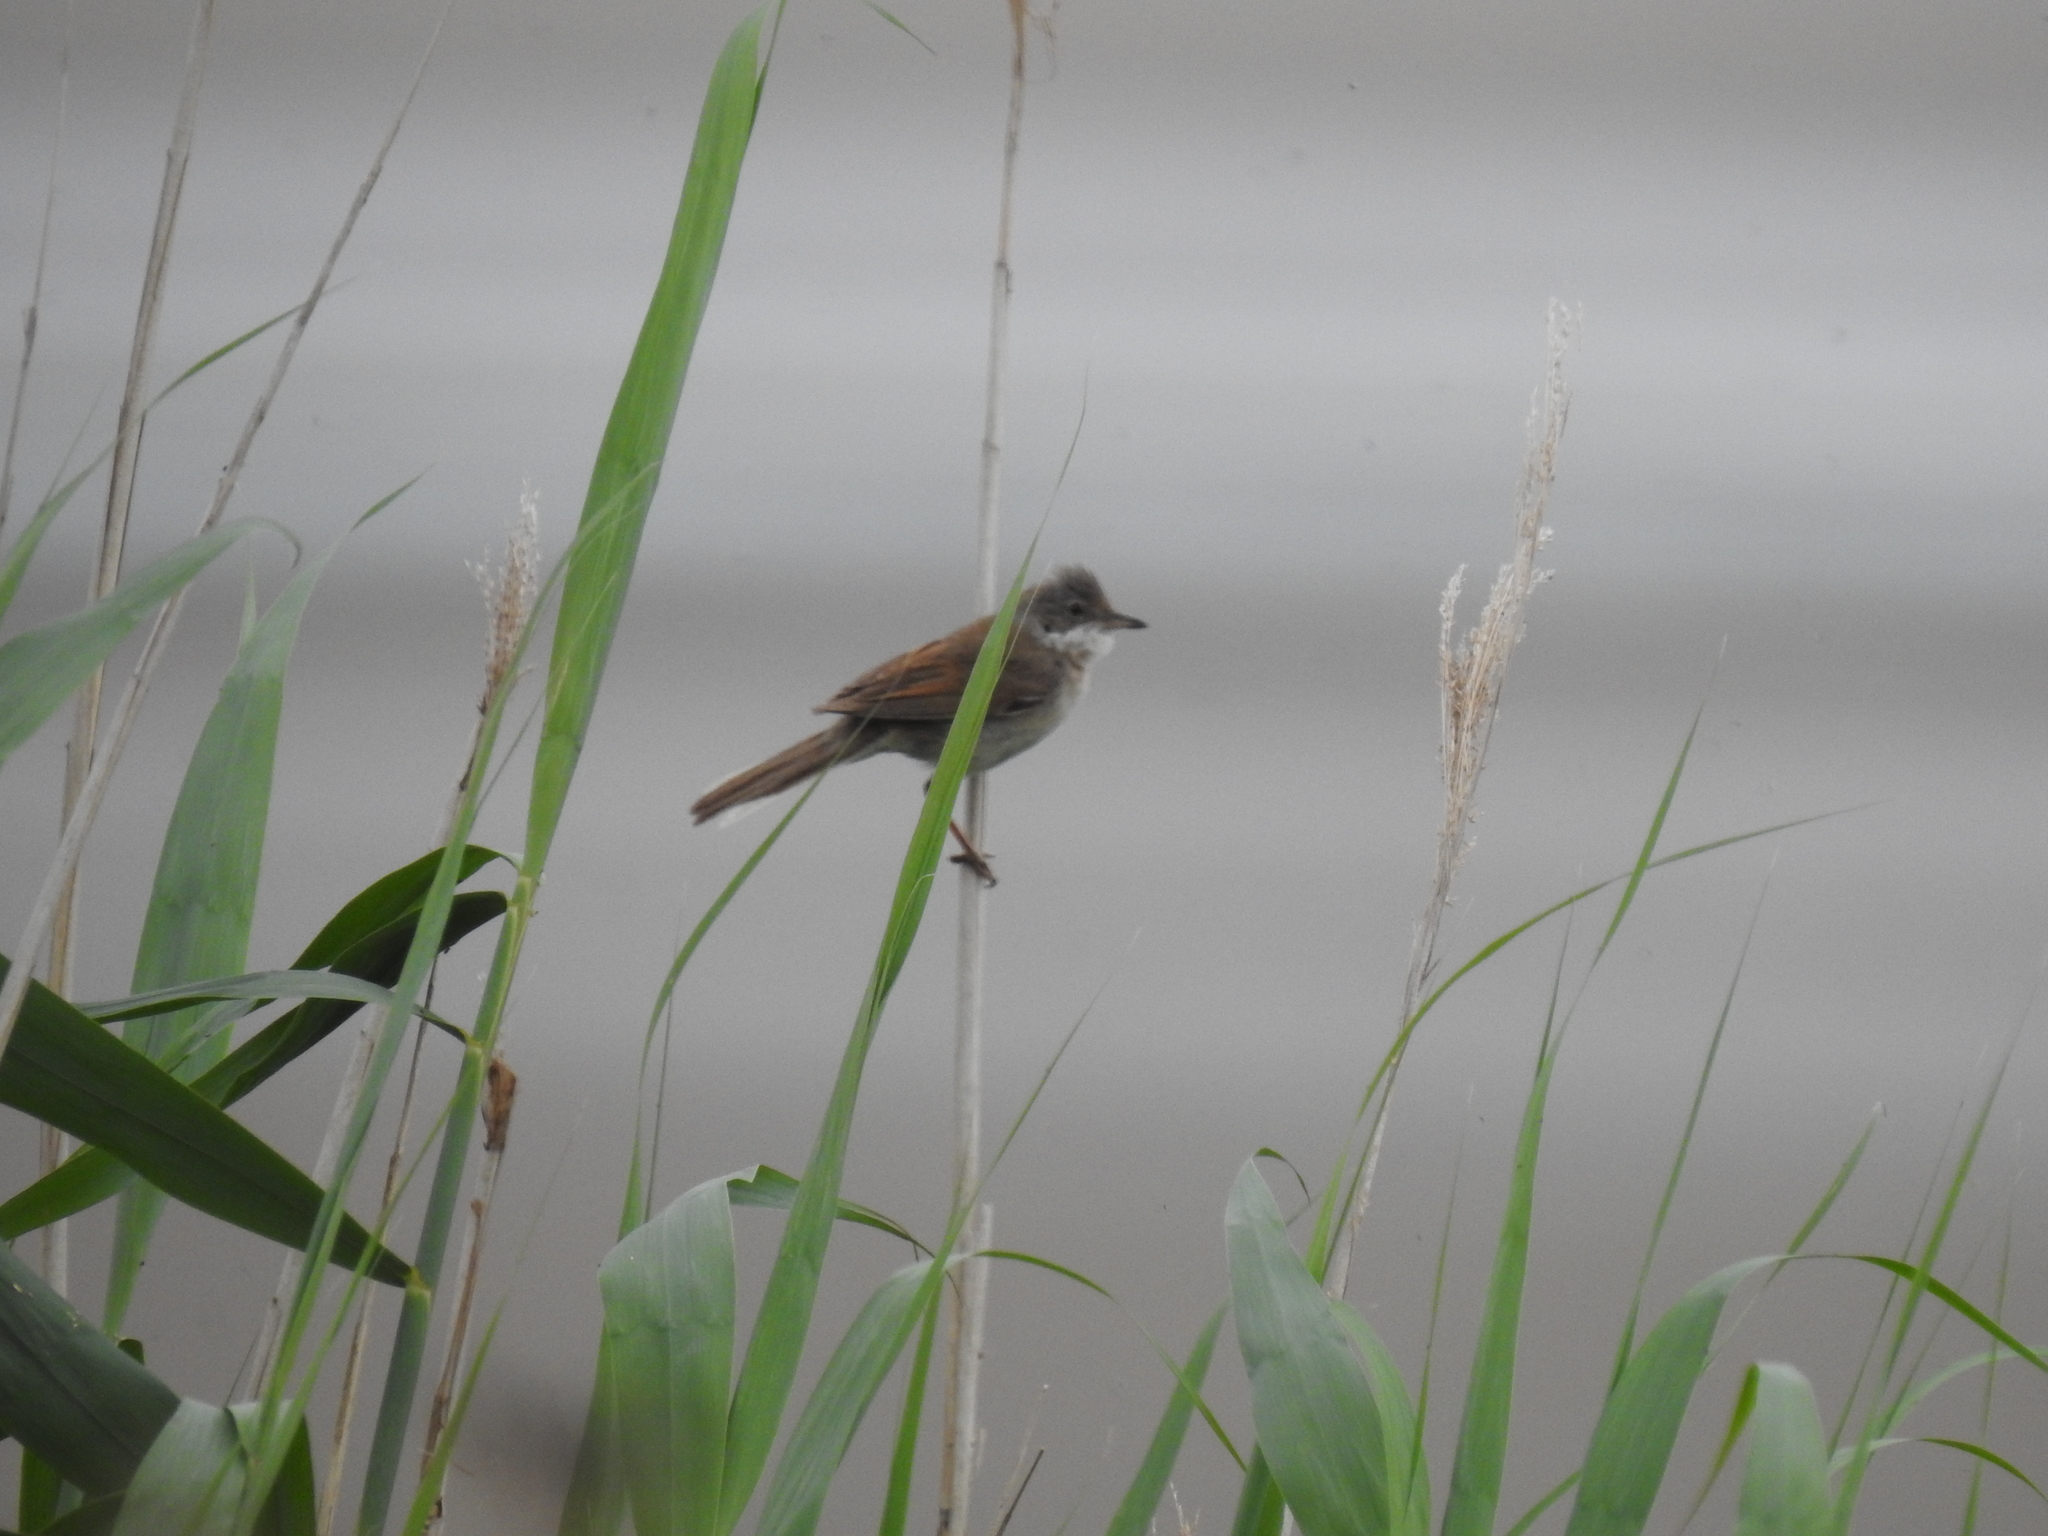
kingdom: Animalia
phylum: Chordata
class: Aves
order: Passeriformes
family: Sylviidae
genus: Sylvia
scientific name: Sylvia communis
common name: Common whitethroat
